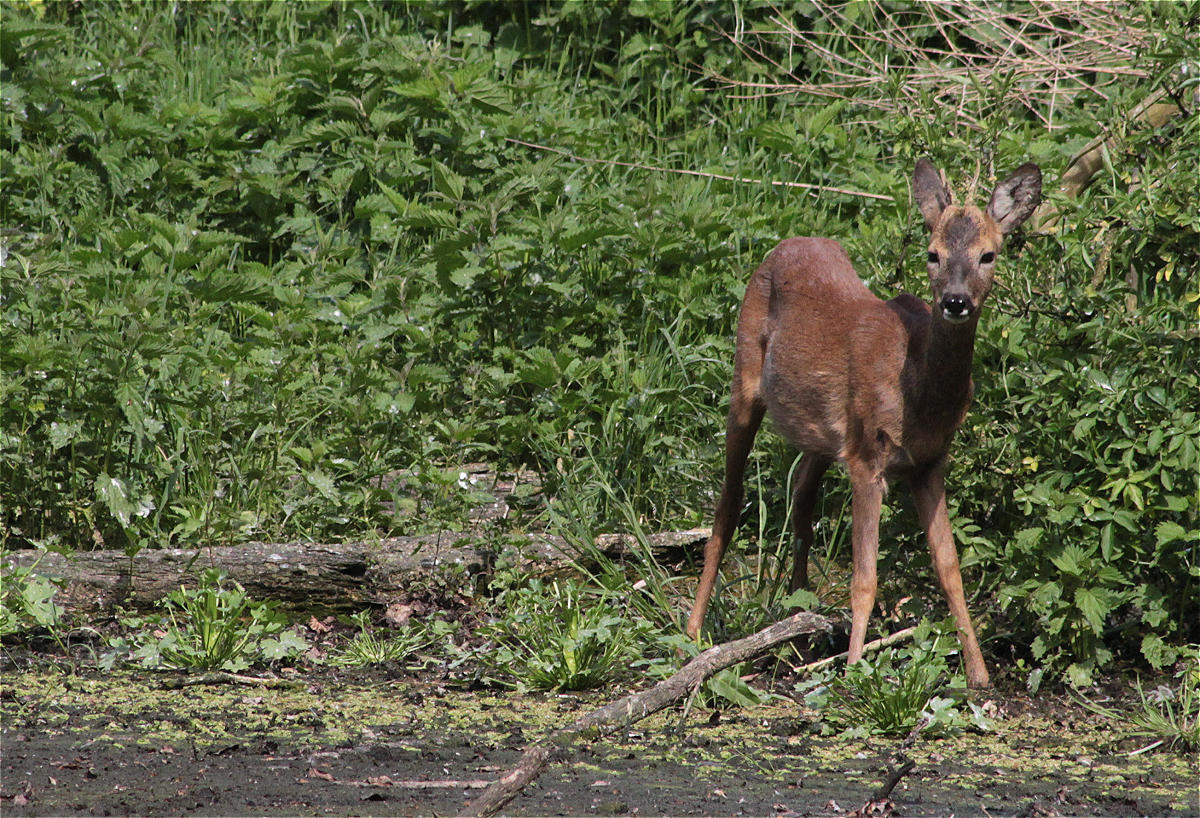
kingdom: Animalia
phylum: Chordata
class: Mammalia
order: Artiodactyla
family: Cervidae
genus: Capreolus
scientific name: Capreolus capreolus
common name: Western roe deer
